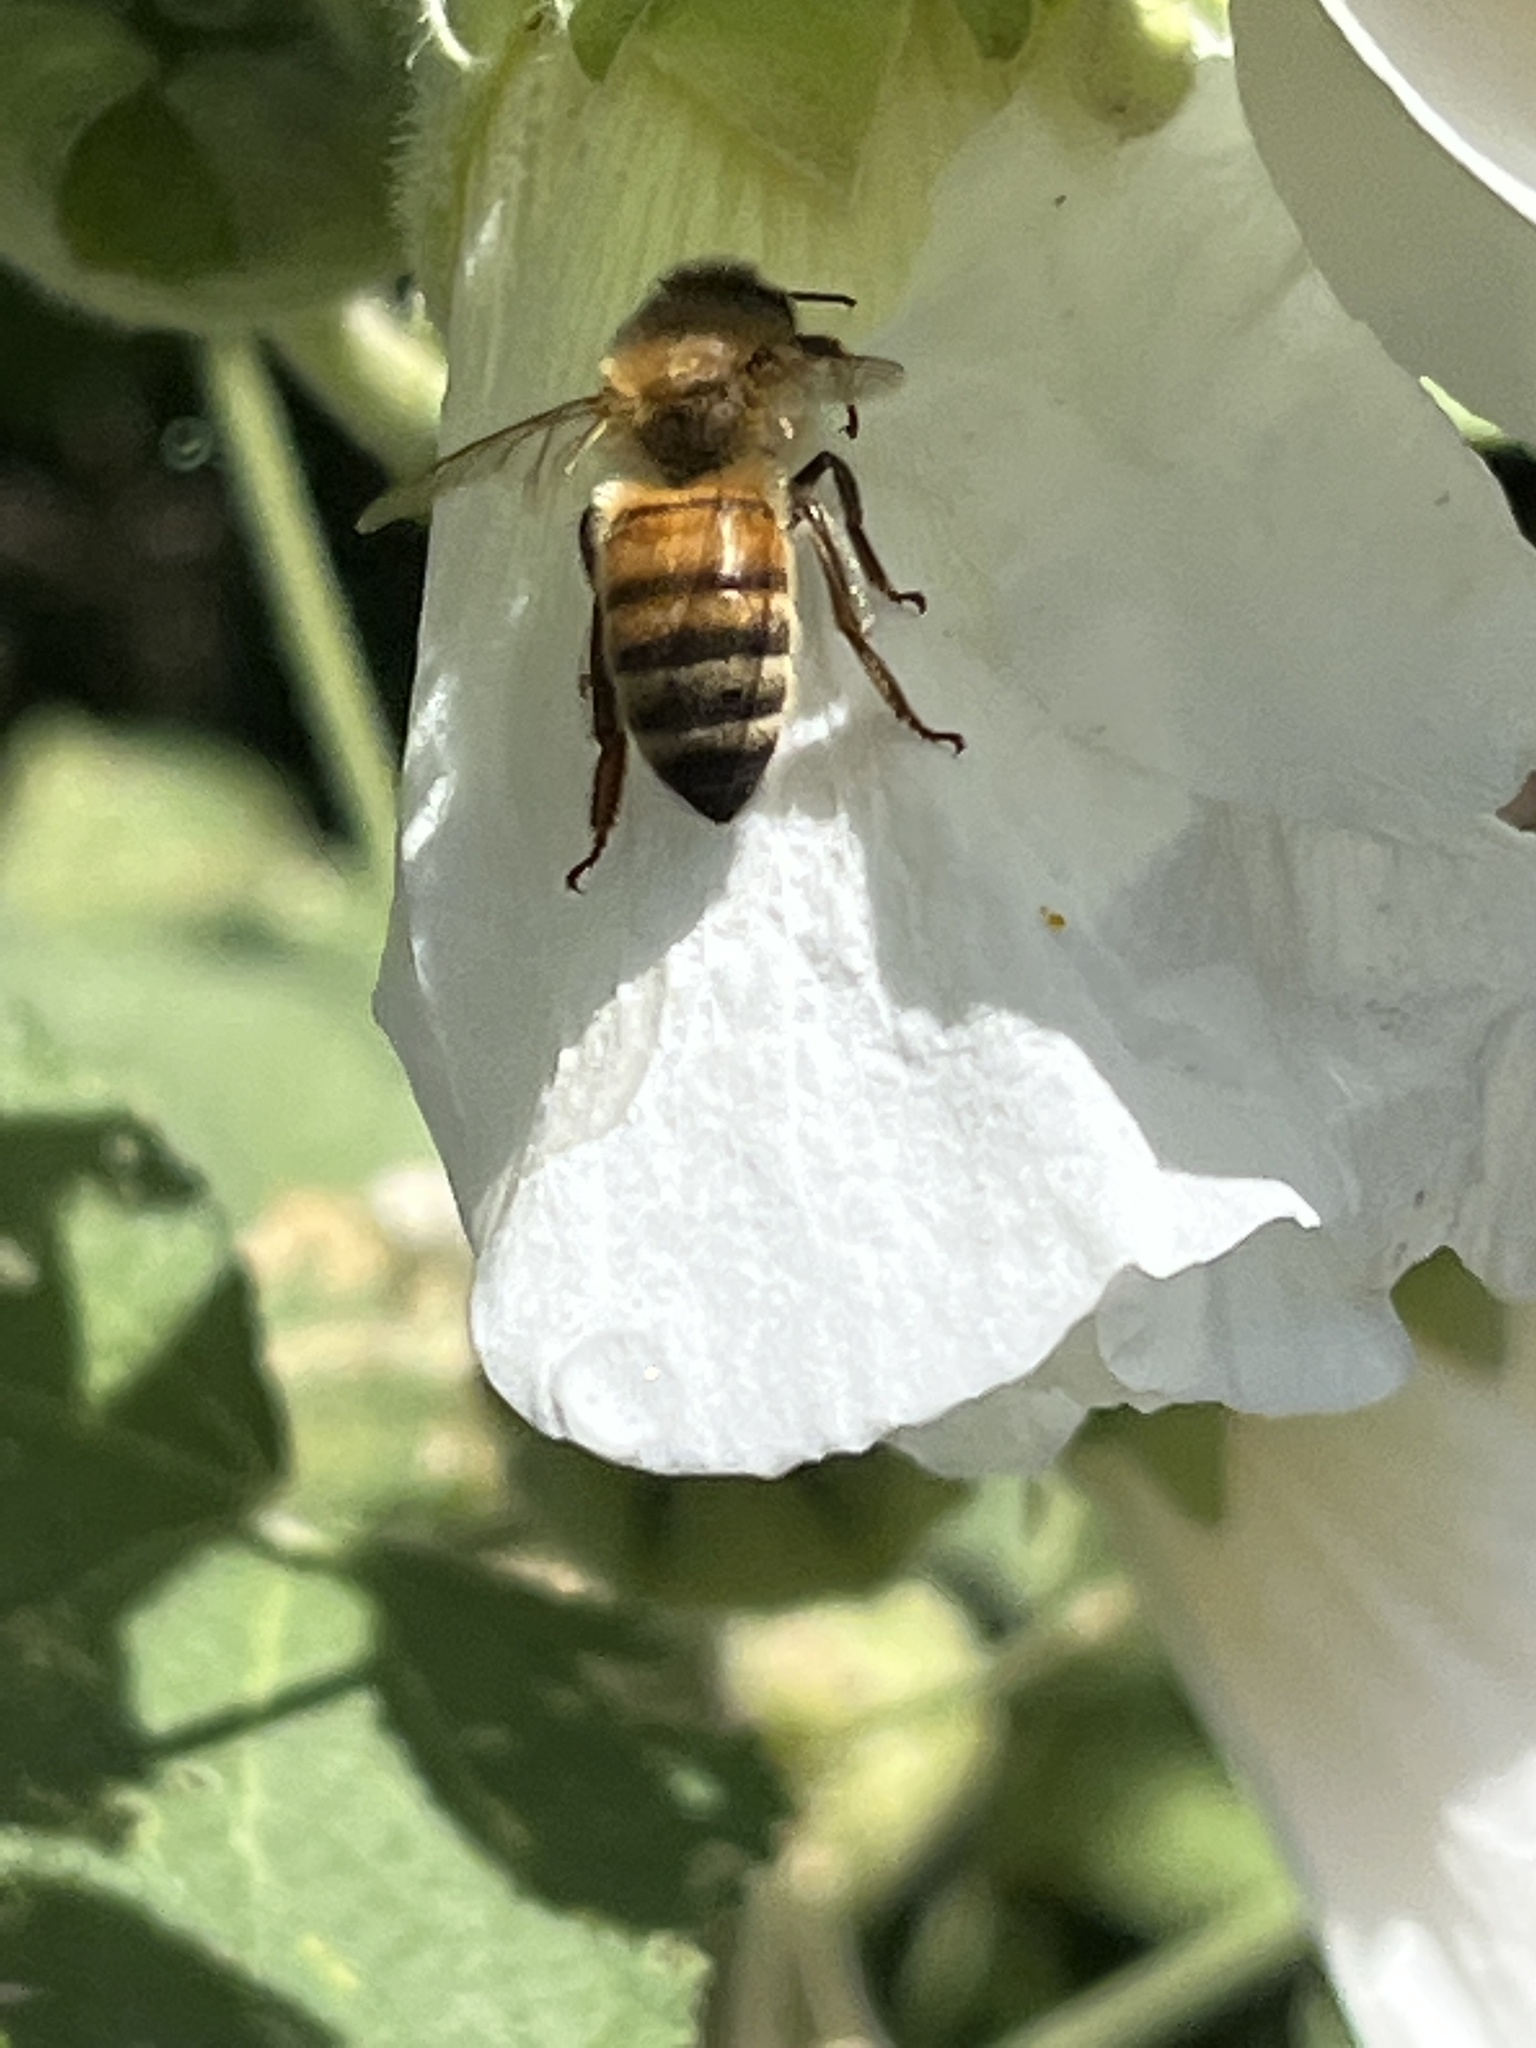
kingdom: Animalia
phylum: Arthropoda
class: Insecta
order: Hymenoptera
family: Apidae
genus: Apis
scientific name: Apis mellifera
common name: Honey bee
